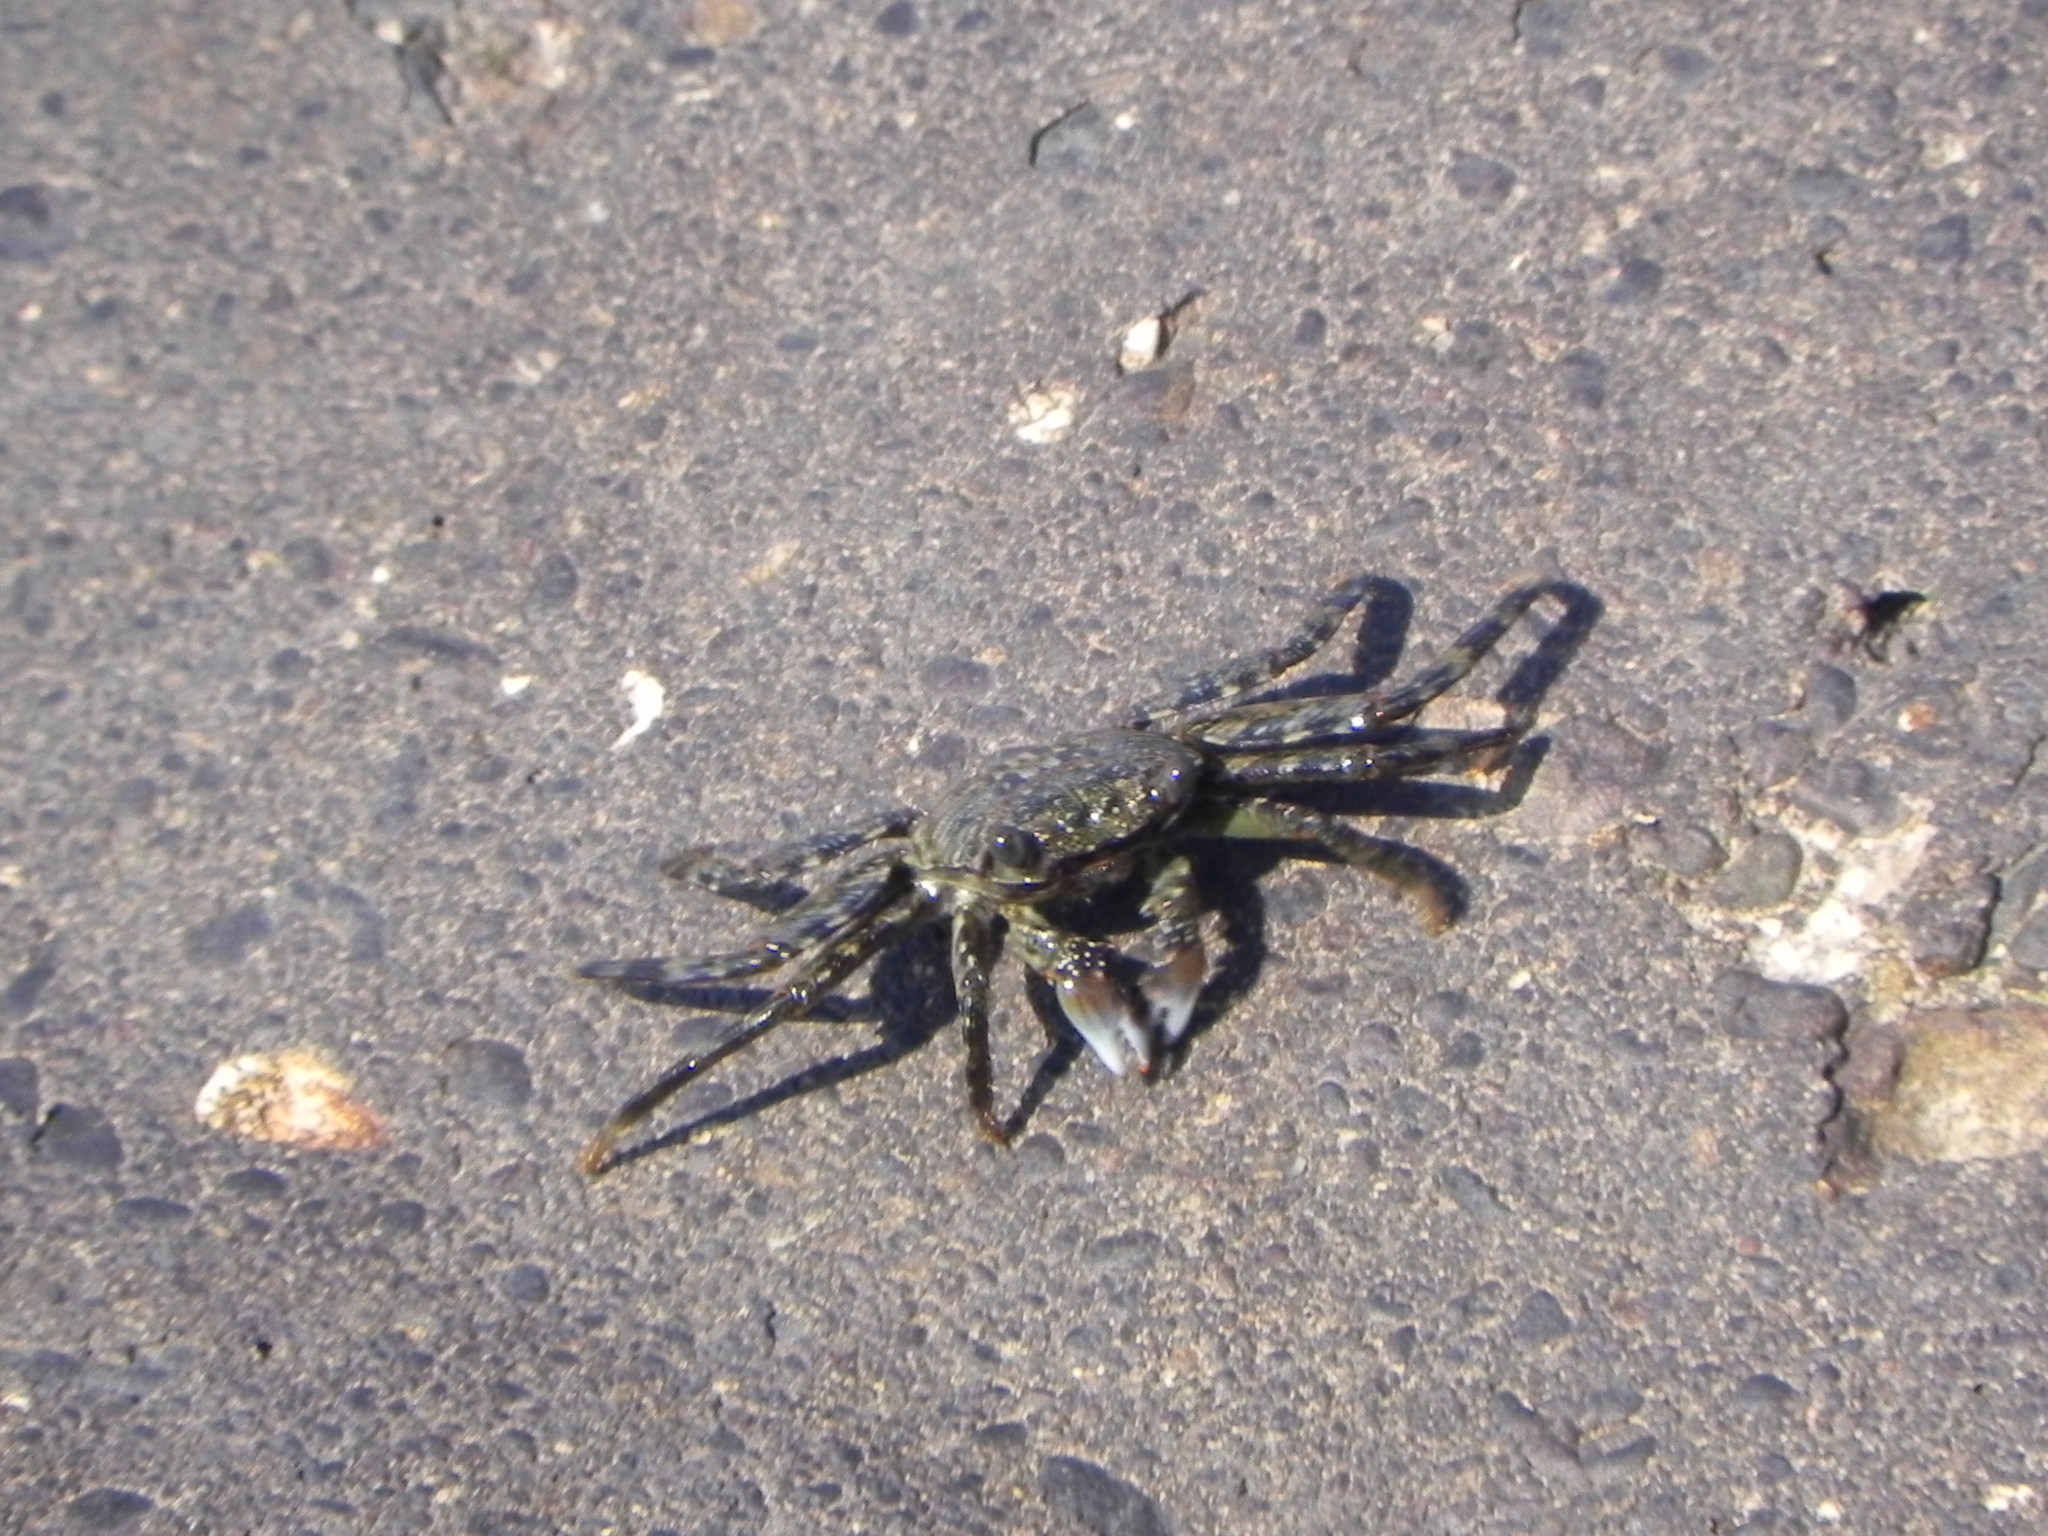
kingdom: Animalia
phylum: Arthropoda
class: Malacostraca
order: Decapoda
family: Grapsidae
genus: Grapsus
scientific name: Grapsus albolineatus
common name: Mottled lightfoot crab
